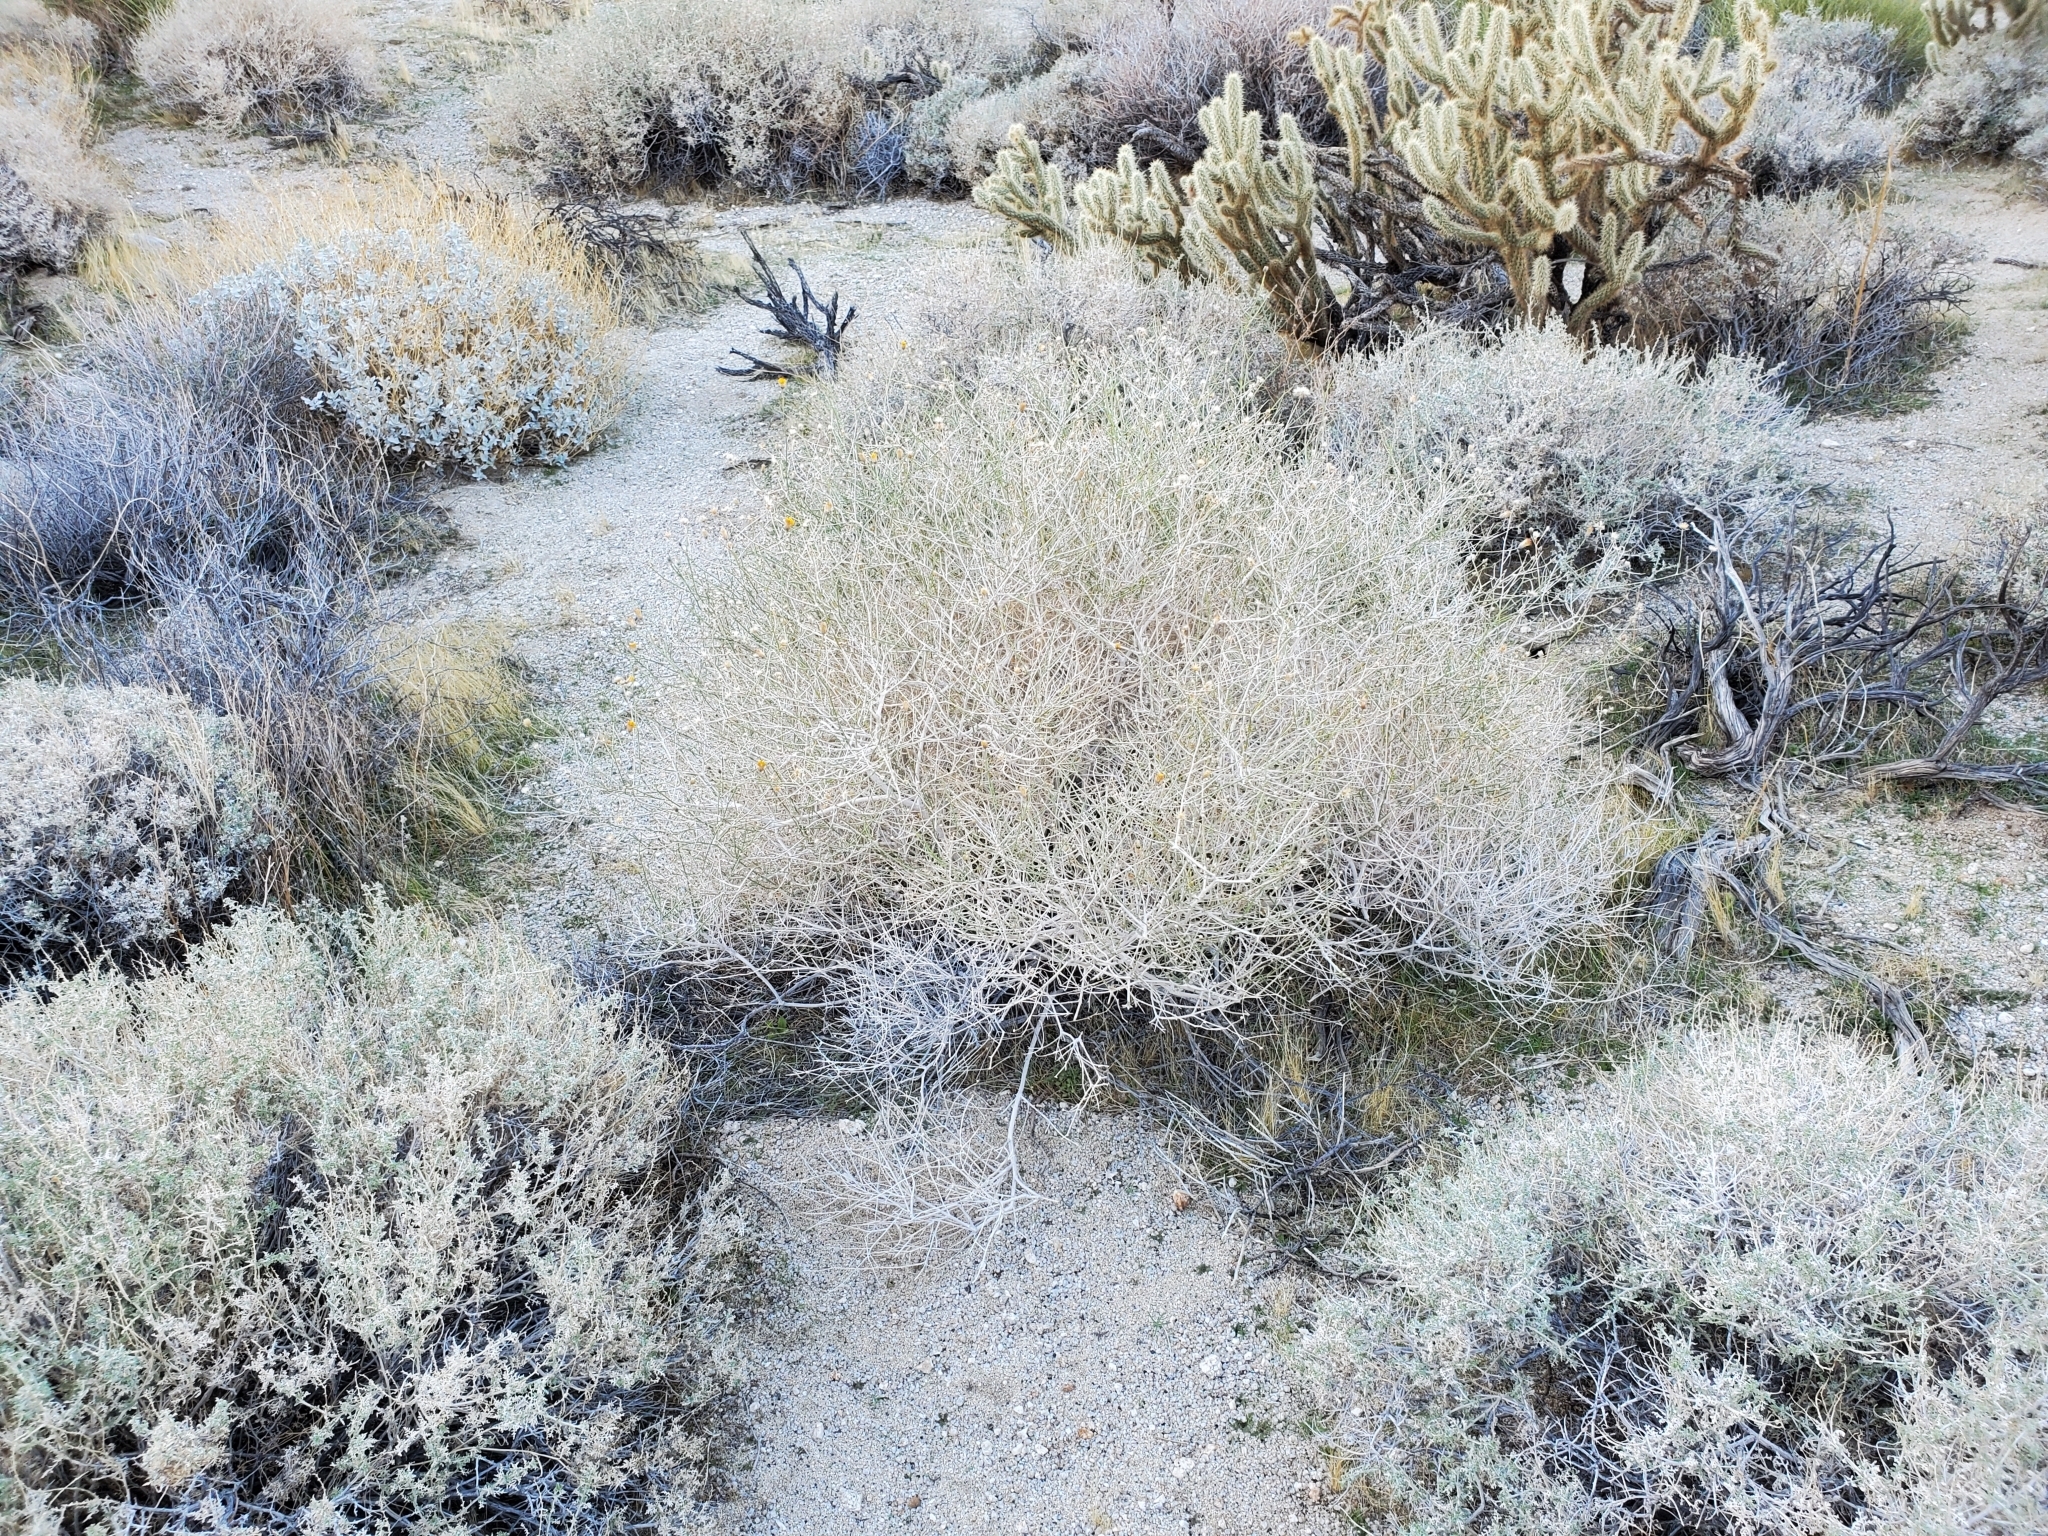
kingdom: Plantae
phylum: Tracheophyta
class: Magnoliopsida
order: Asterales
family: Asteraceae
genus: Bebbia
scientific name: Bebbia juncea
